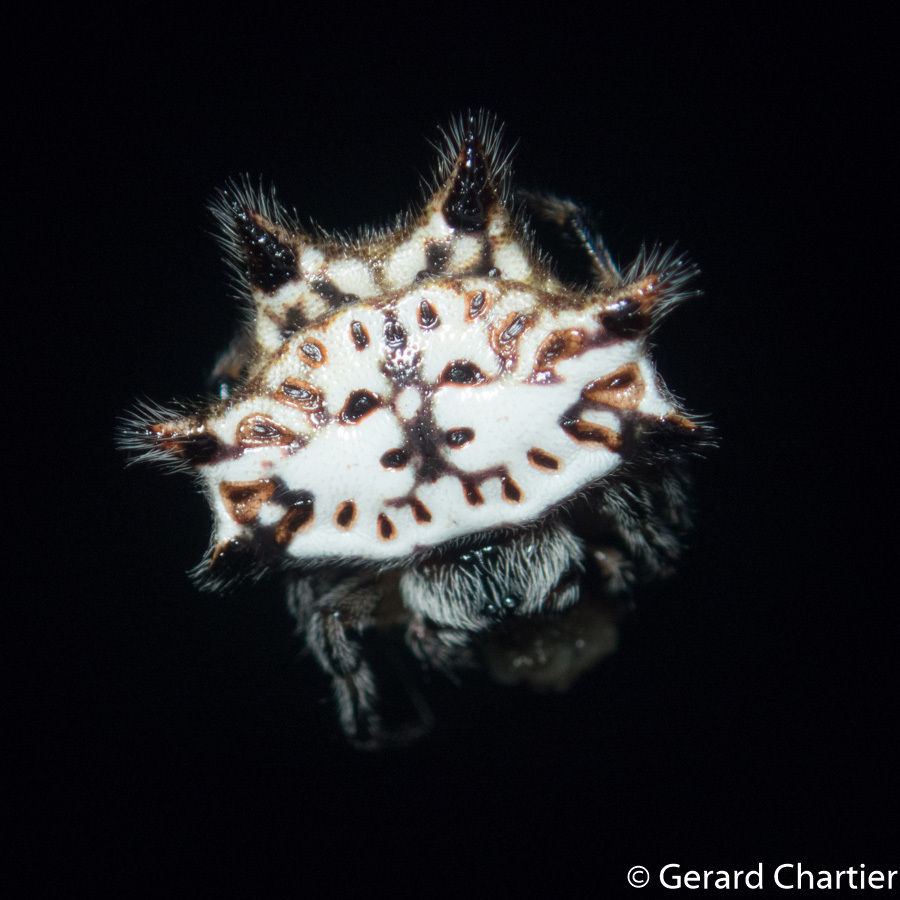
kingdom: Animalia
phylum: Arthropoda
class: Arachnida
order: Araneae
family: Araneidae
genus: Gasteracantha
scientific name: Gasteracantha kuhli
